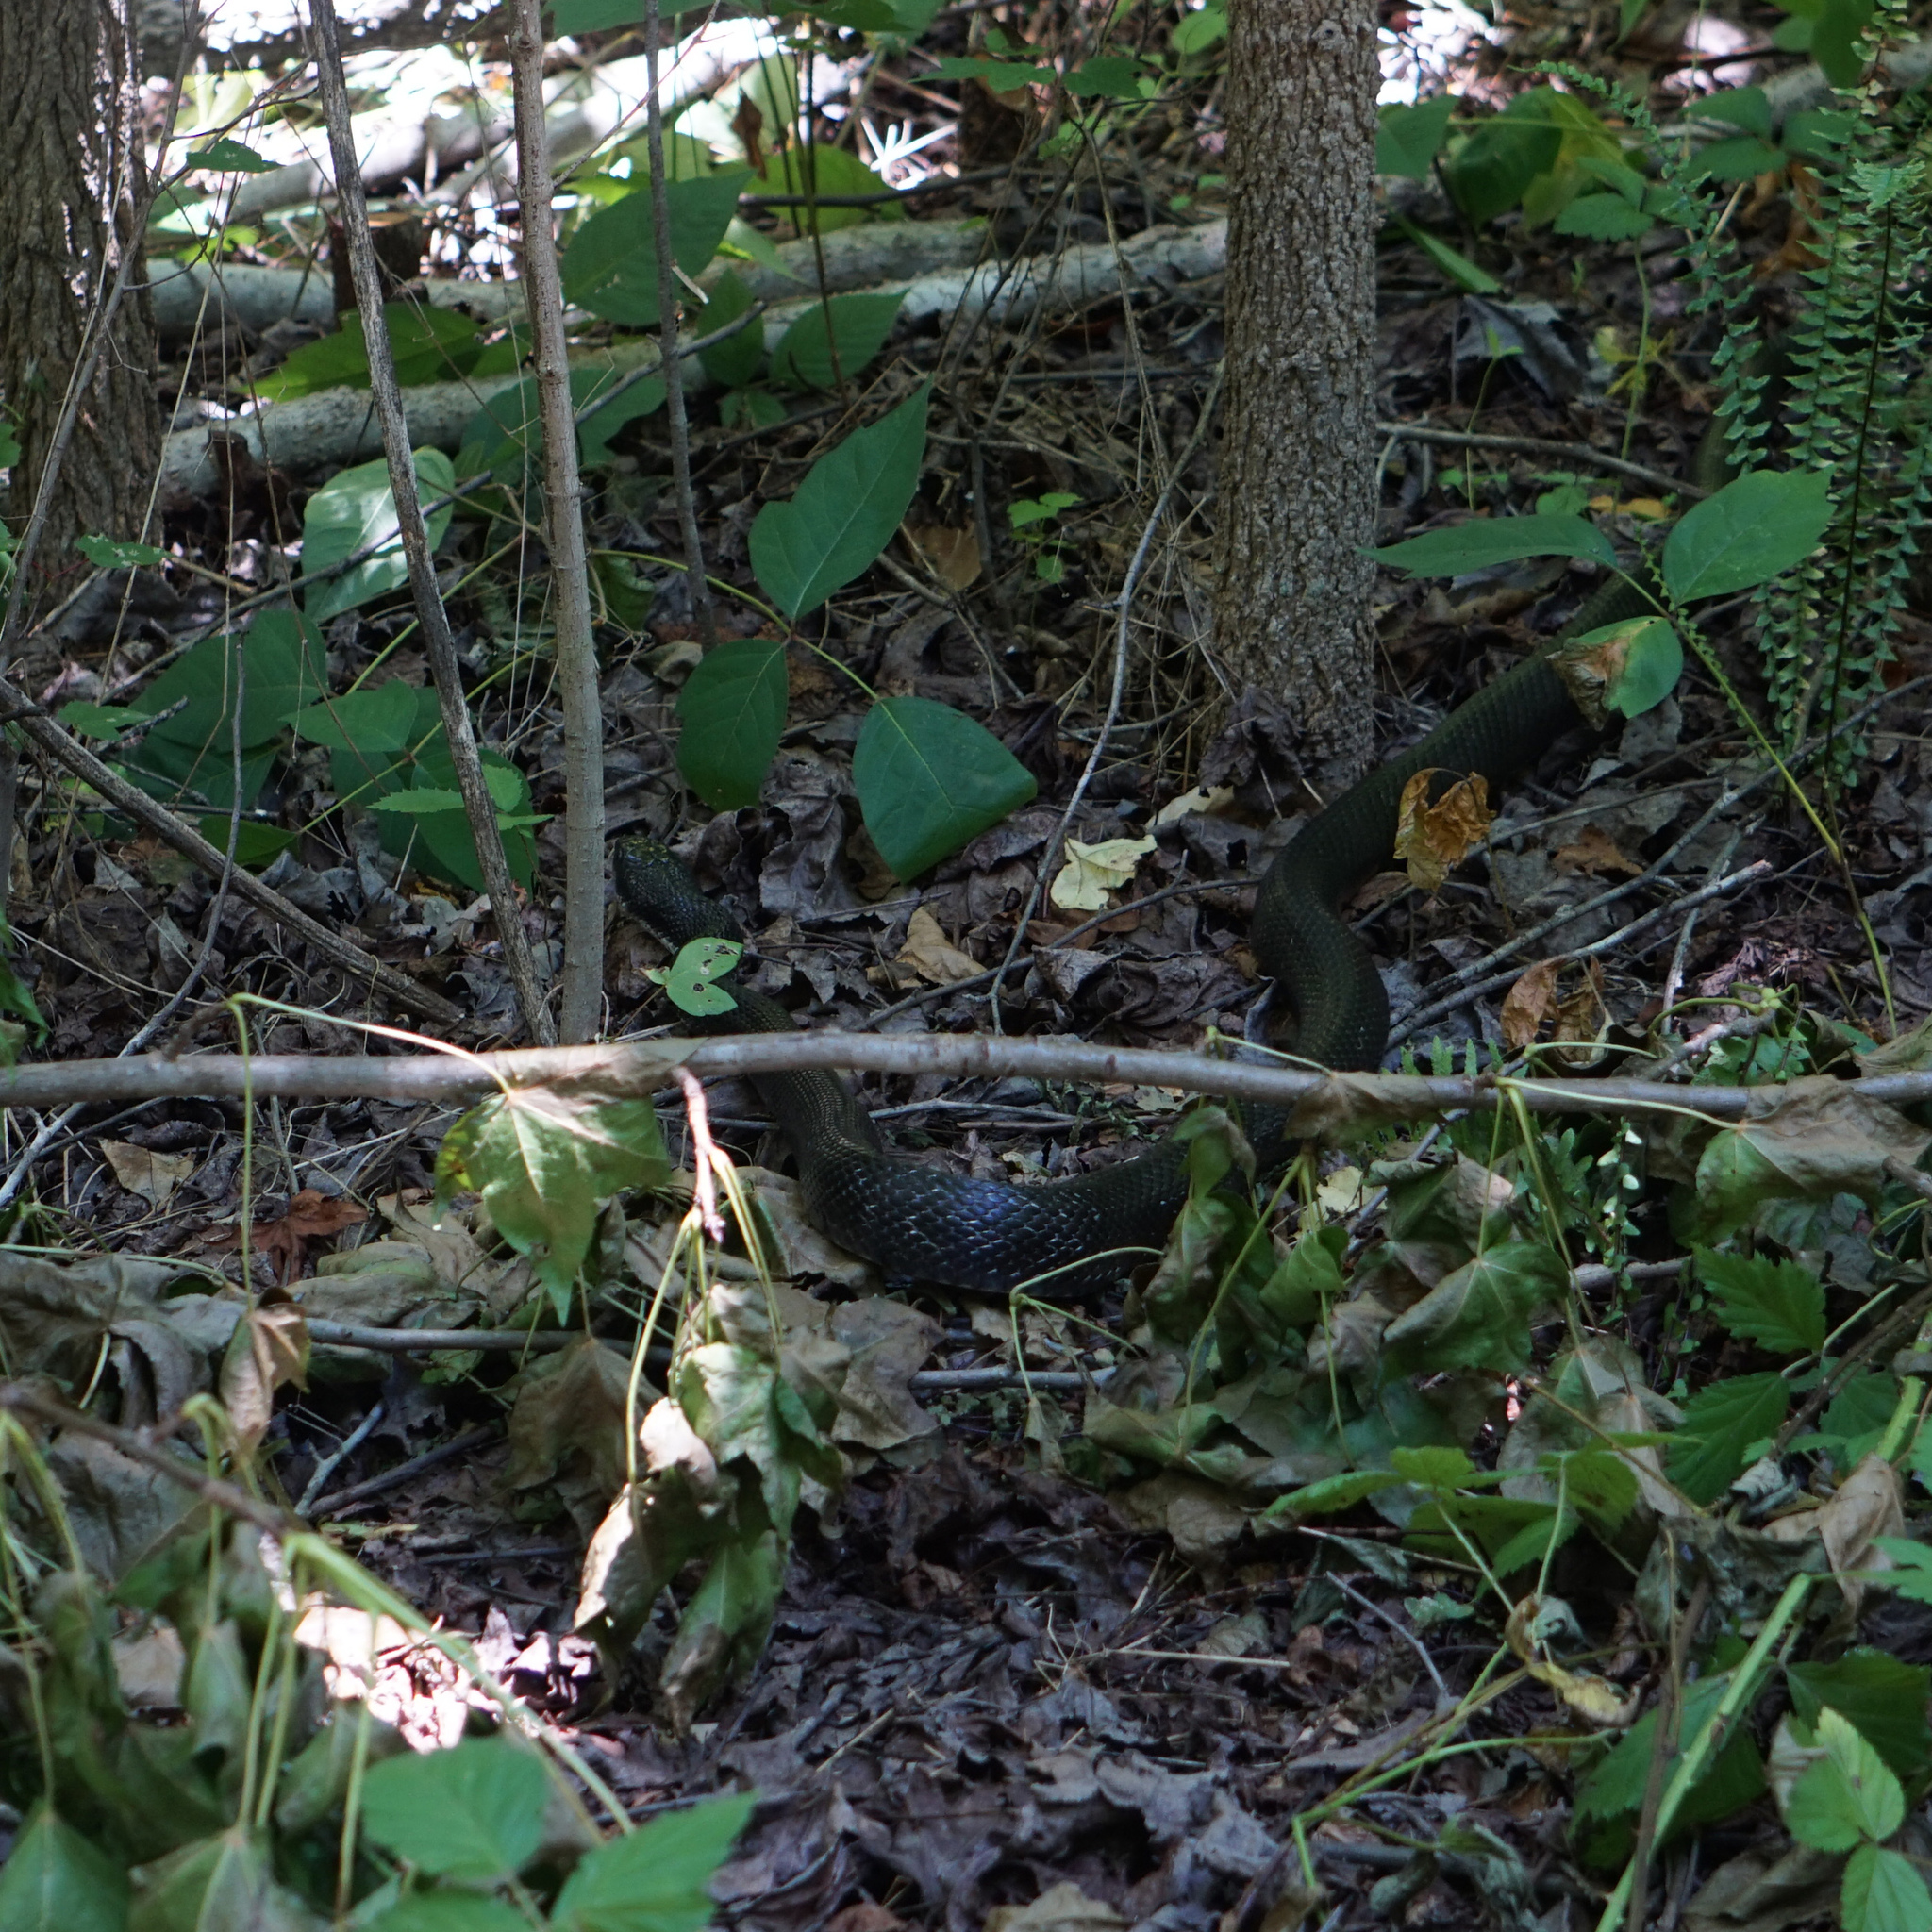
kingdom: Animalia
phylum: Chordata
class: Squamata
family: Colubridae
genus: Pantherophis
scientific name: Pantherophis alleghaniensis
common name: Eastern rat snake
